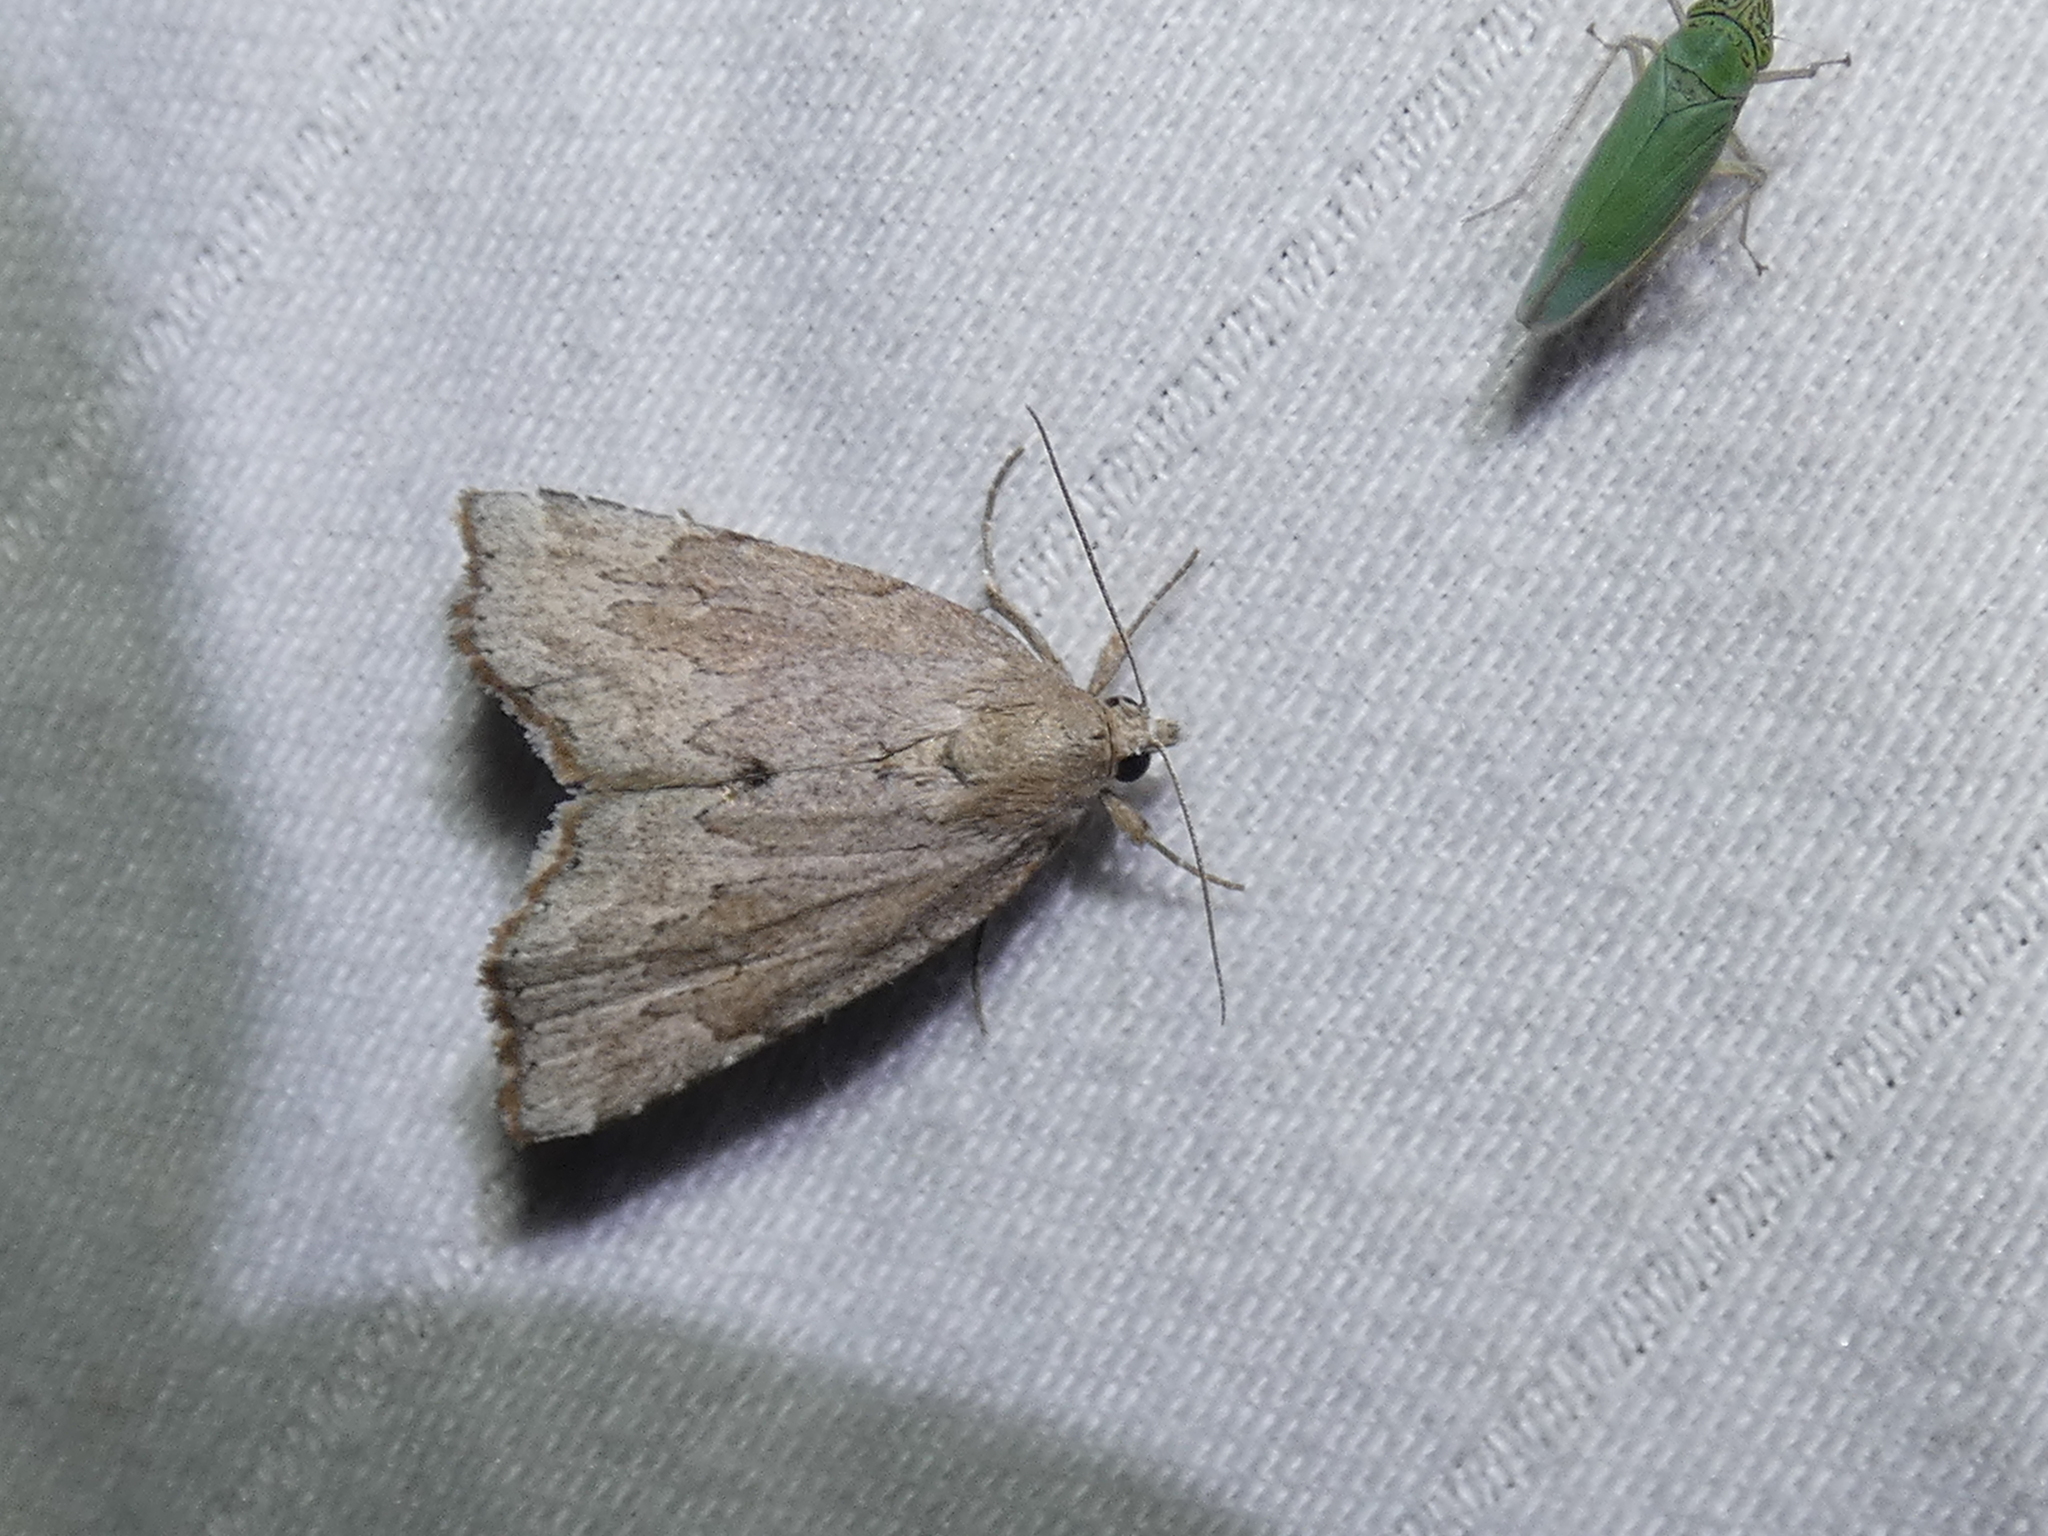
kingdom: Animalia
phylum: Arthropoda
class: Insecta
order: Lepidoptera
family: Erebidae
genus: Cutina
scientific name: Cutina albopunctella
